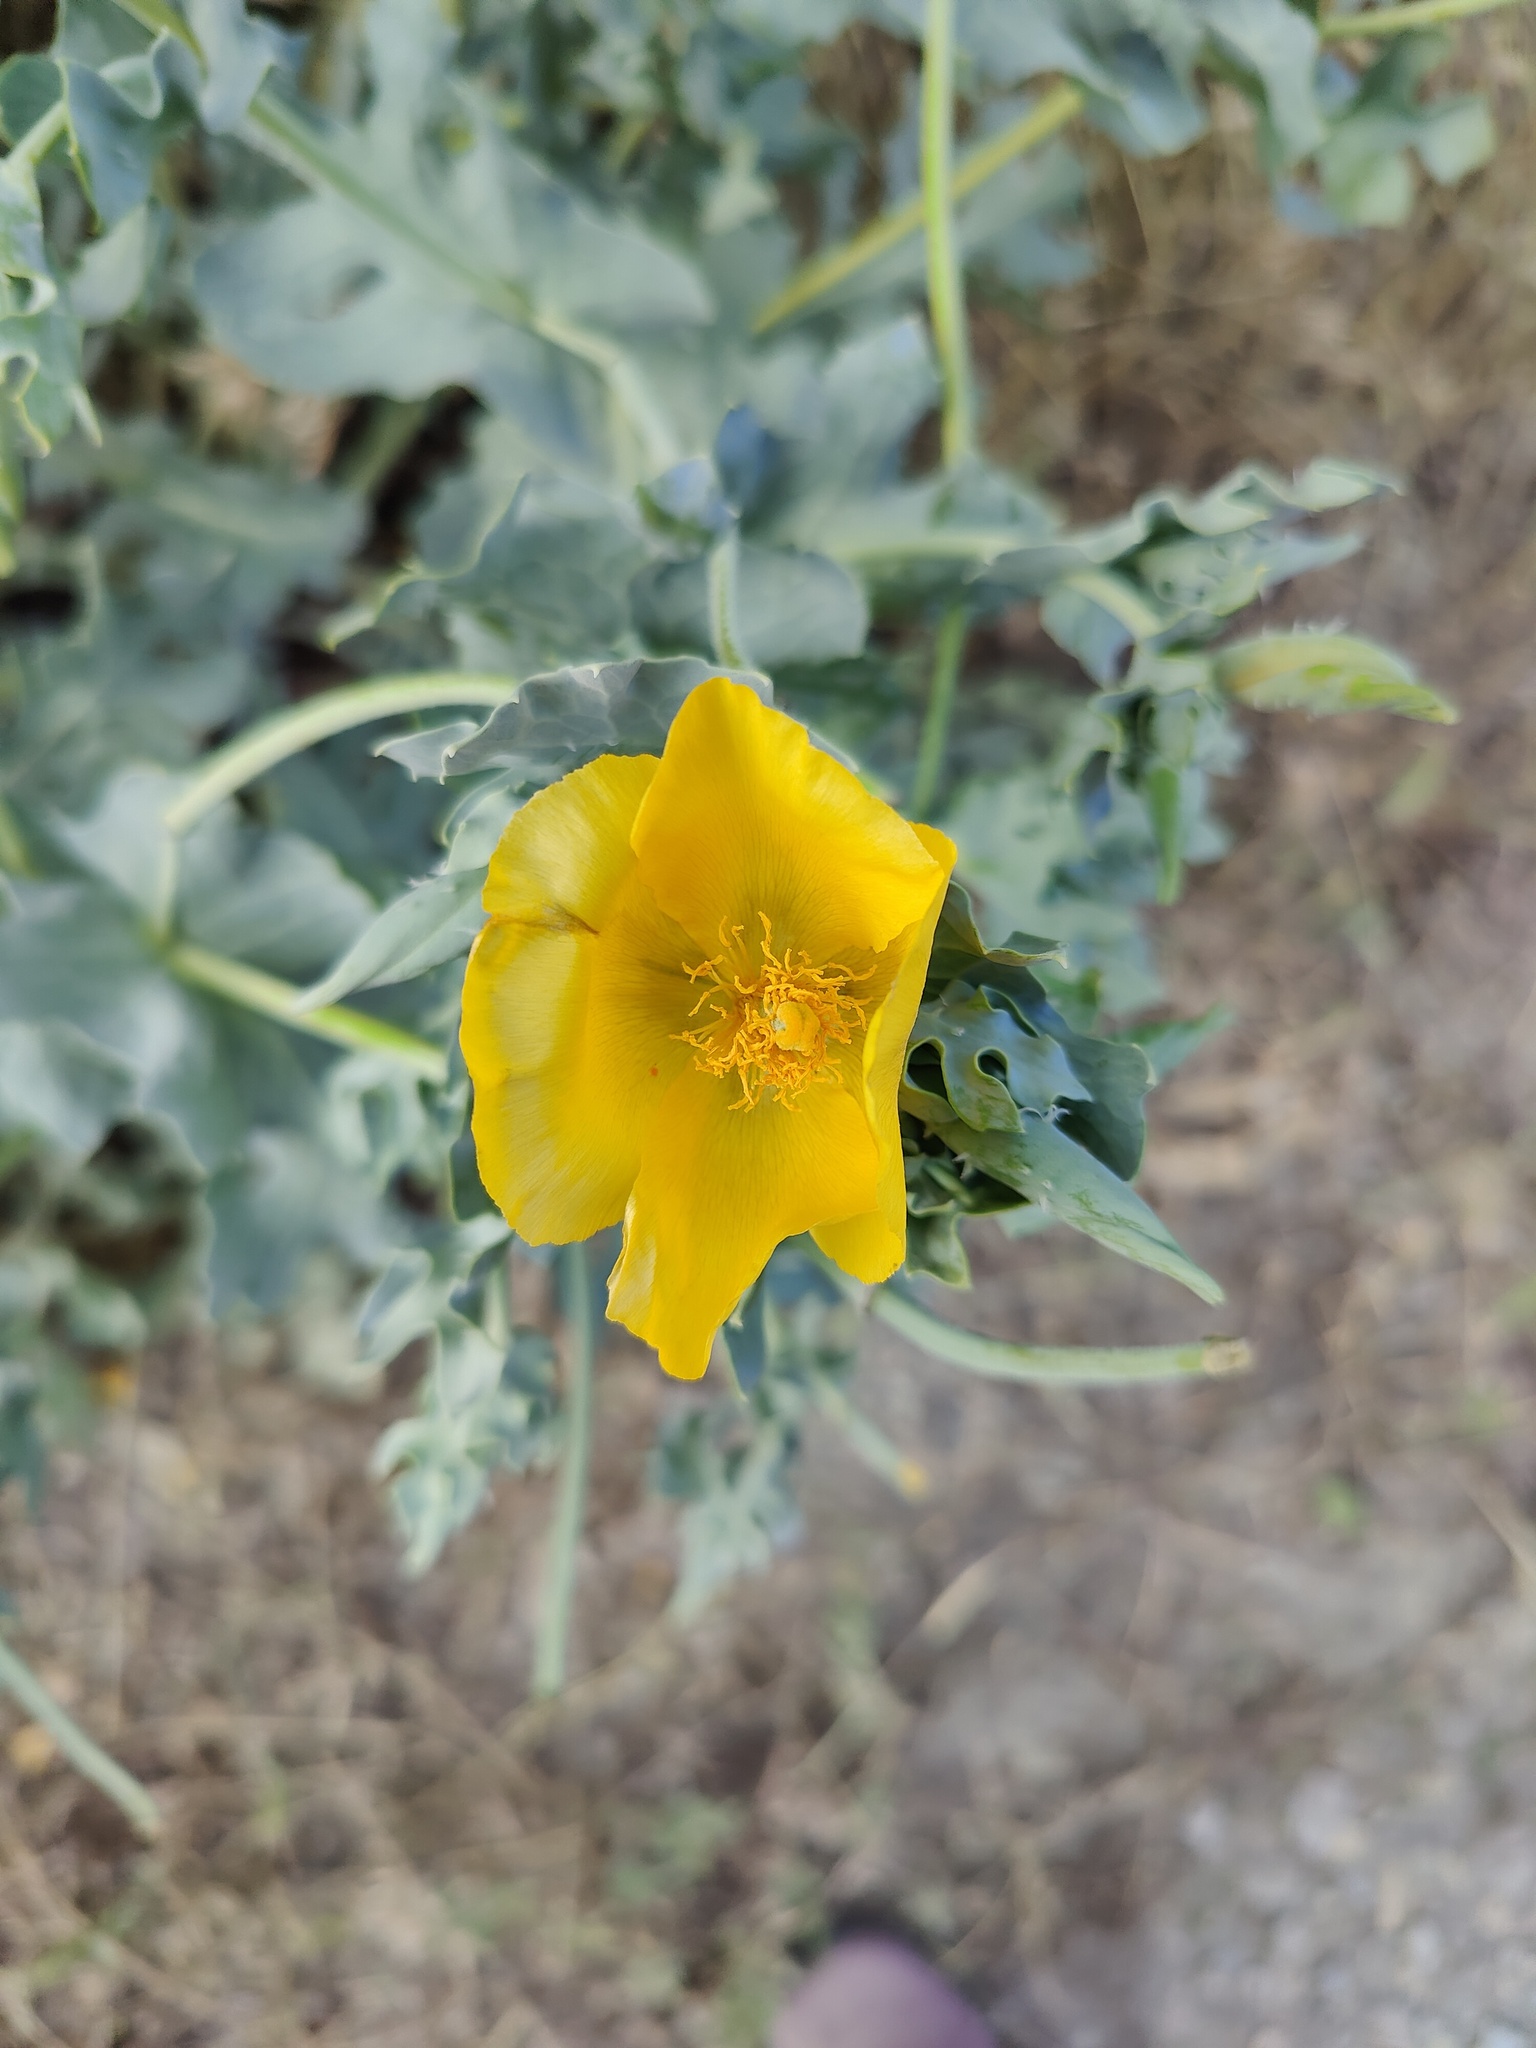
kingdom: Plantae
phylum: Tracheophyta
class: Magnoliopsida
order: Ranunculales
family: Papaveraceae
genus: Glaucium
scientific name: Glaucium flavum
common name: Yellow horned-poppy
